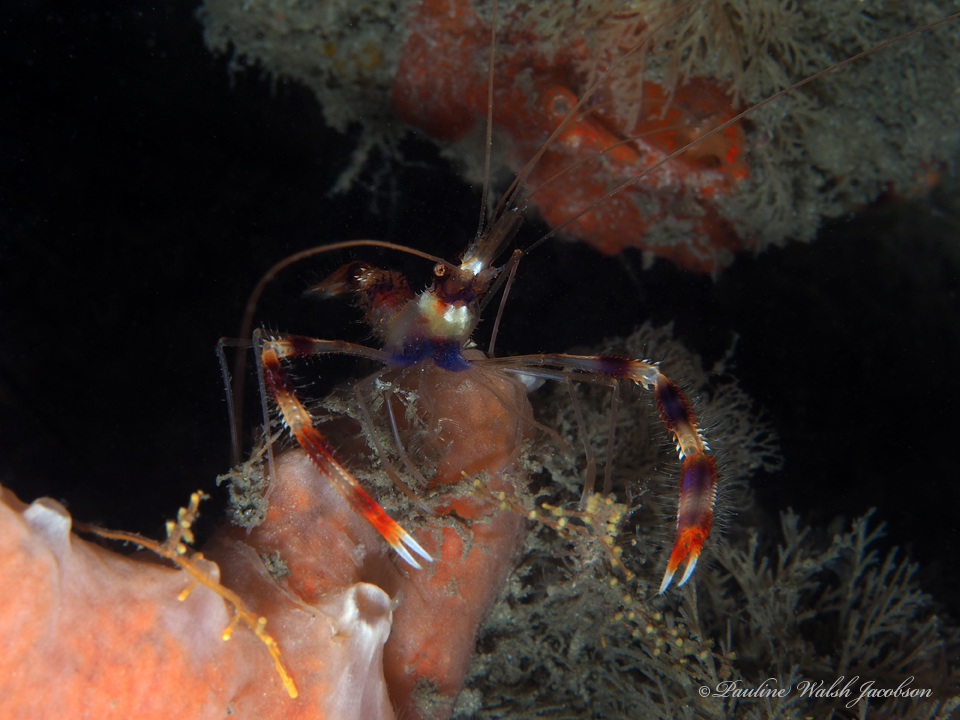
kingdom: Animalia
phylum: Arthropoda
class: Malacostraca
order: Decapoda
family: Stenopodidae
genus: Stenopus
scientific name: Stenopus hispidus
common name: Banded coral shrimp
